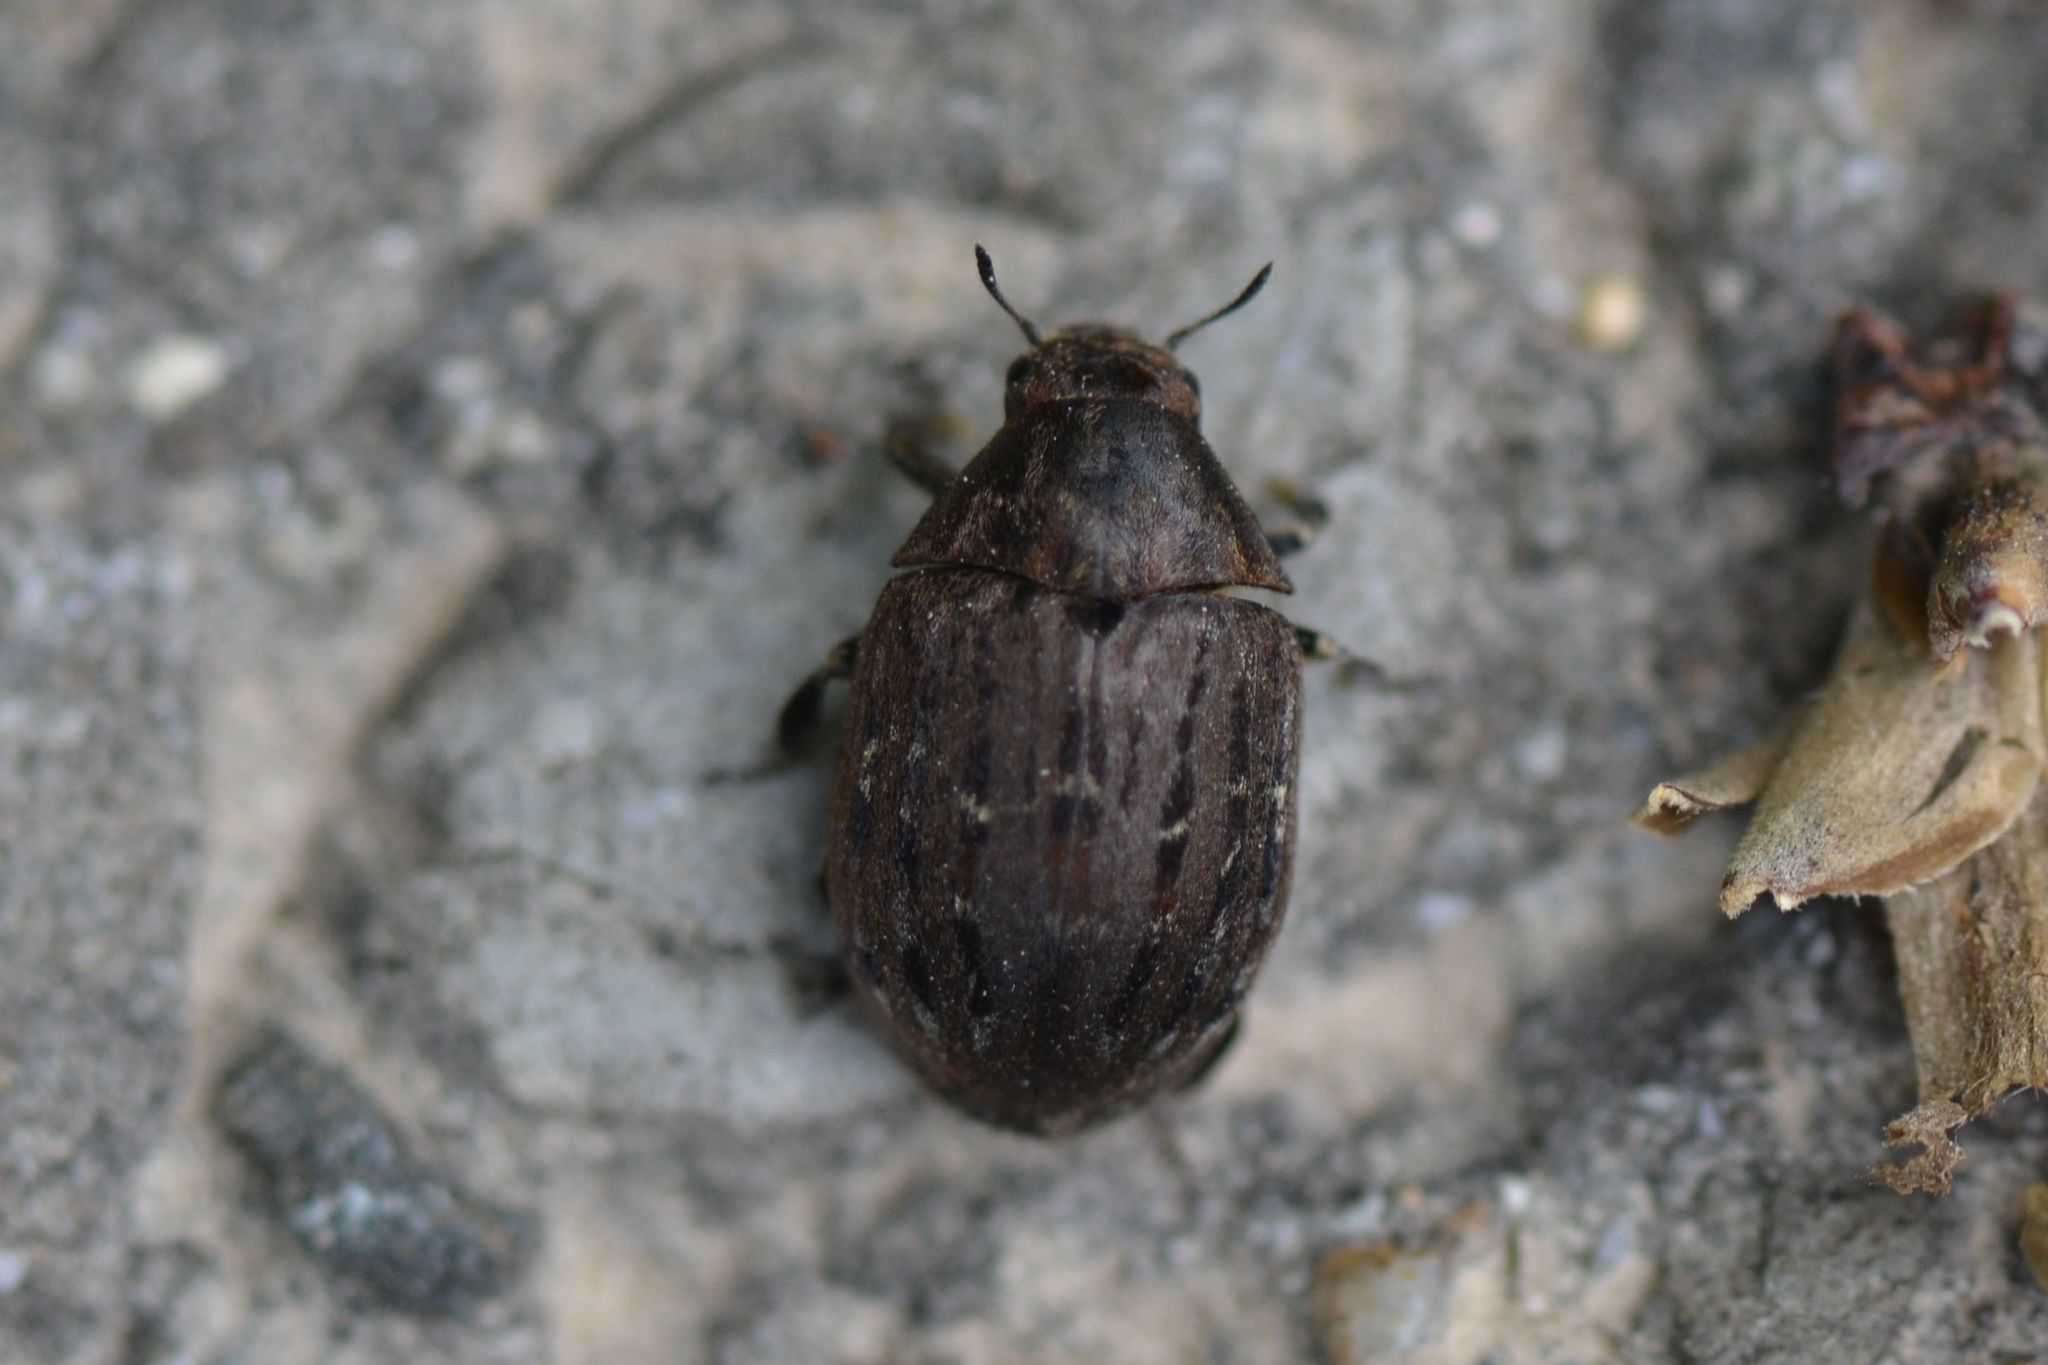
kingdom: Animalia
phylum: Arthropoda
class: Insecta
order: Coleoptera
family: Byrrhidae
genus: Byrrhus
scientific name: Byrrhus pilula
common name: Pill beetle
